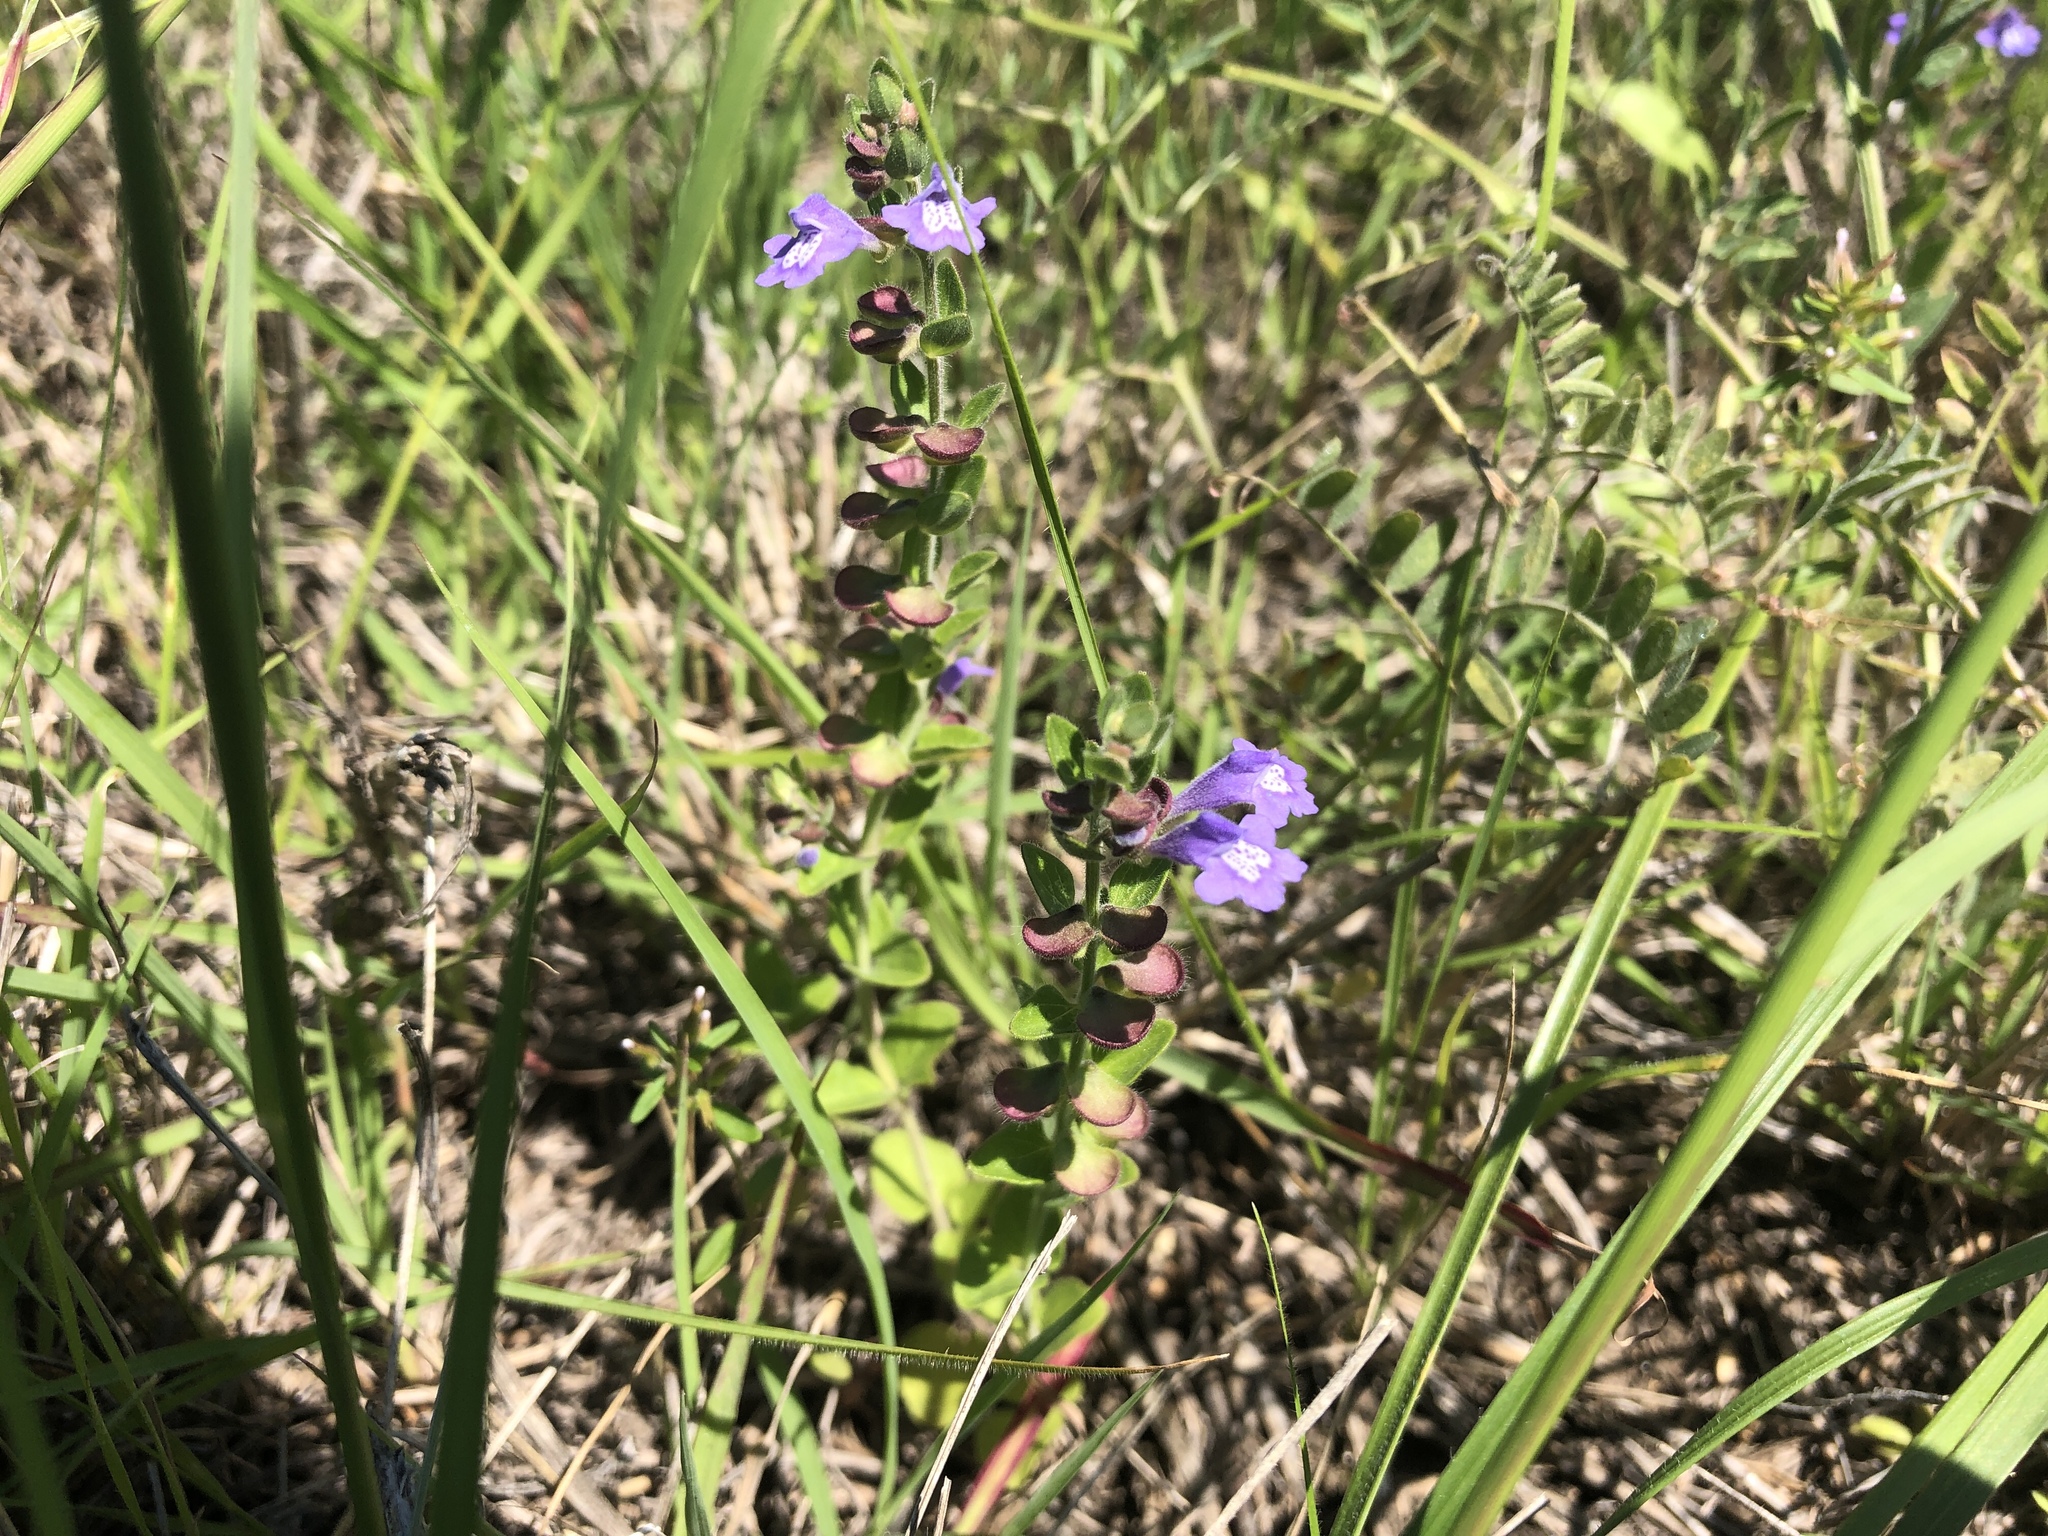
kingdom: Plantae
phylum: Tracheophyta
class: Magnoliopsida
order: Lamiales
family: Lamiaceae
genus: Scutellaria
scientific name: Scutellaria drummondii
